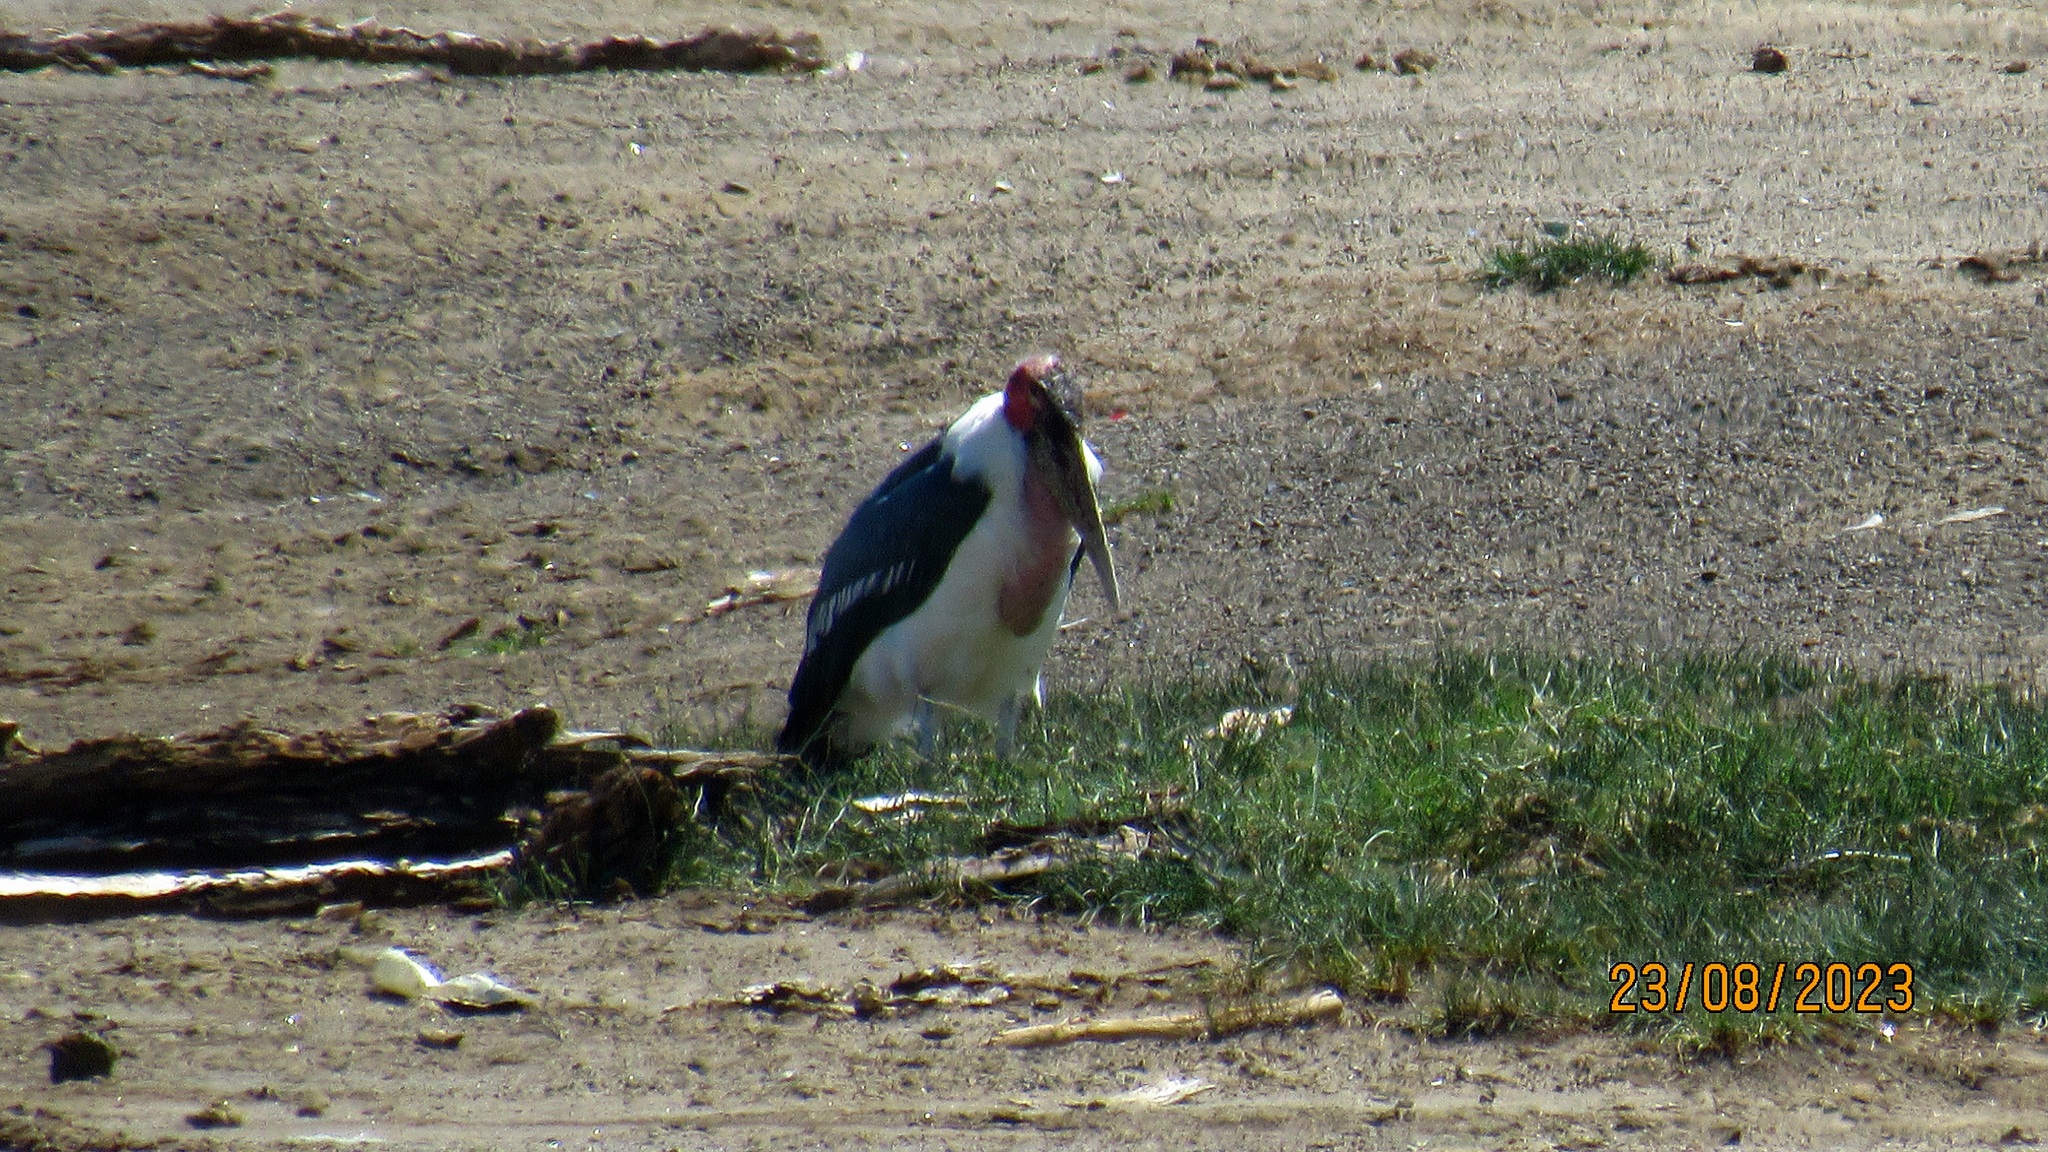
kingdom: Animalia
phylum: Chordata
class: Aves
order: Ciconiiformes
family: Ciconiidae
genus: Leptoptilos
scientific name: Leptoptilos crumenifer
